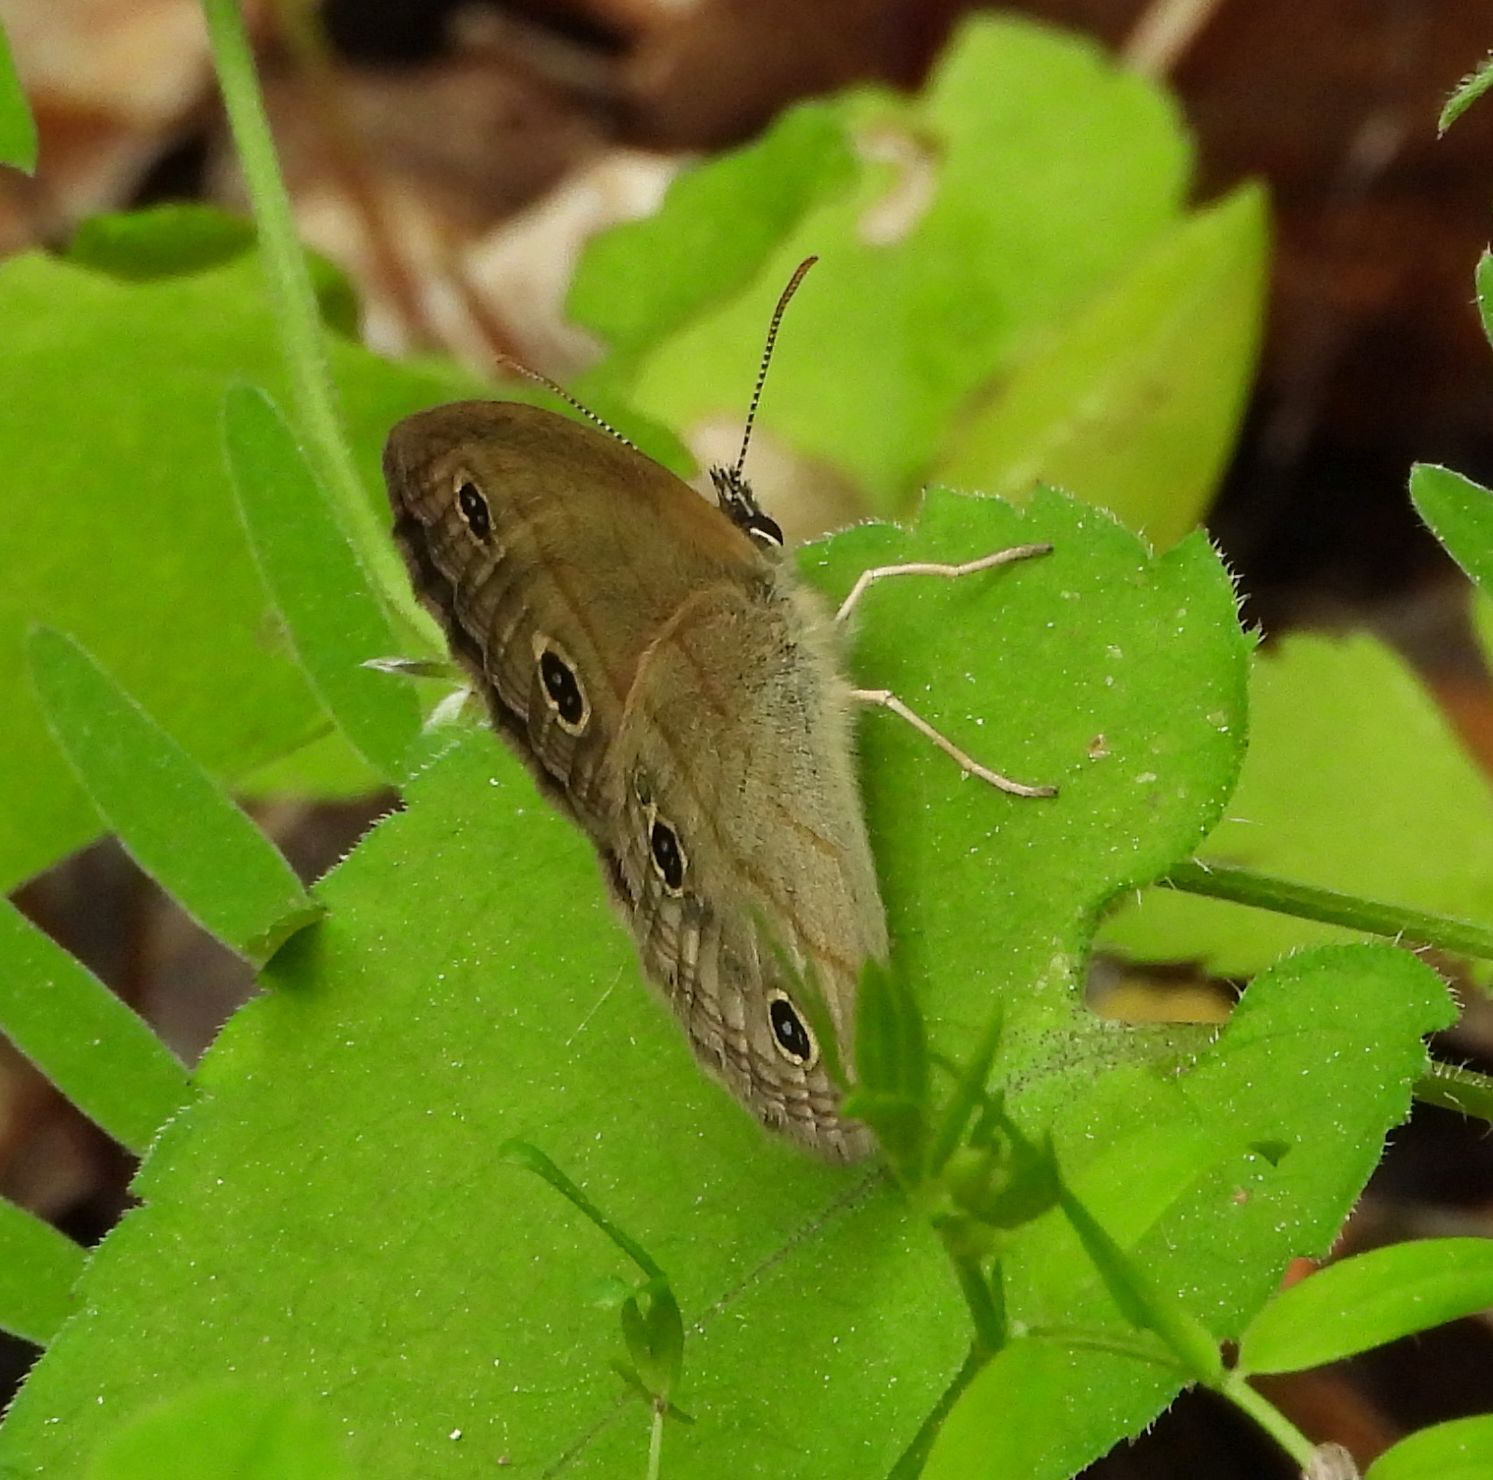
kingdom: Animalia
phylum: Arthropoda
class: Insecta
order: Lepidoptera
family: Nymphalidae
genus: Euptychia
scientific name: Euptychia cymela
